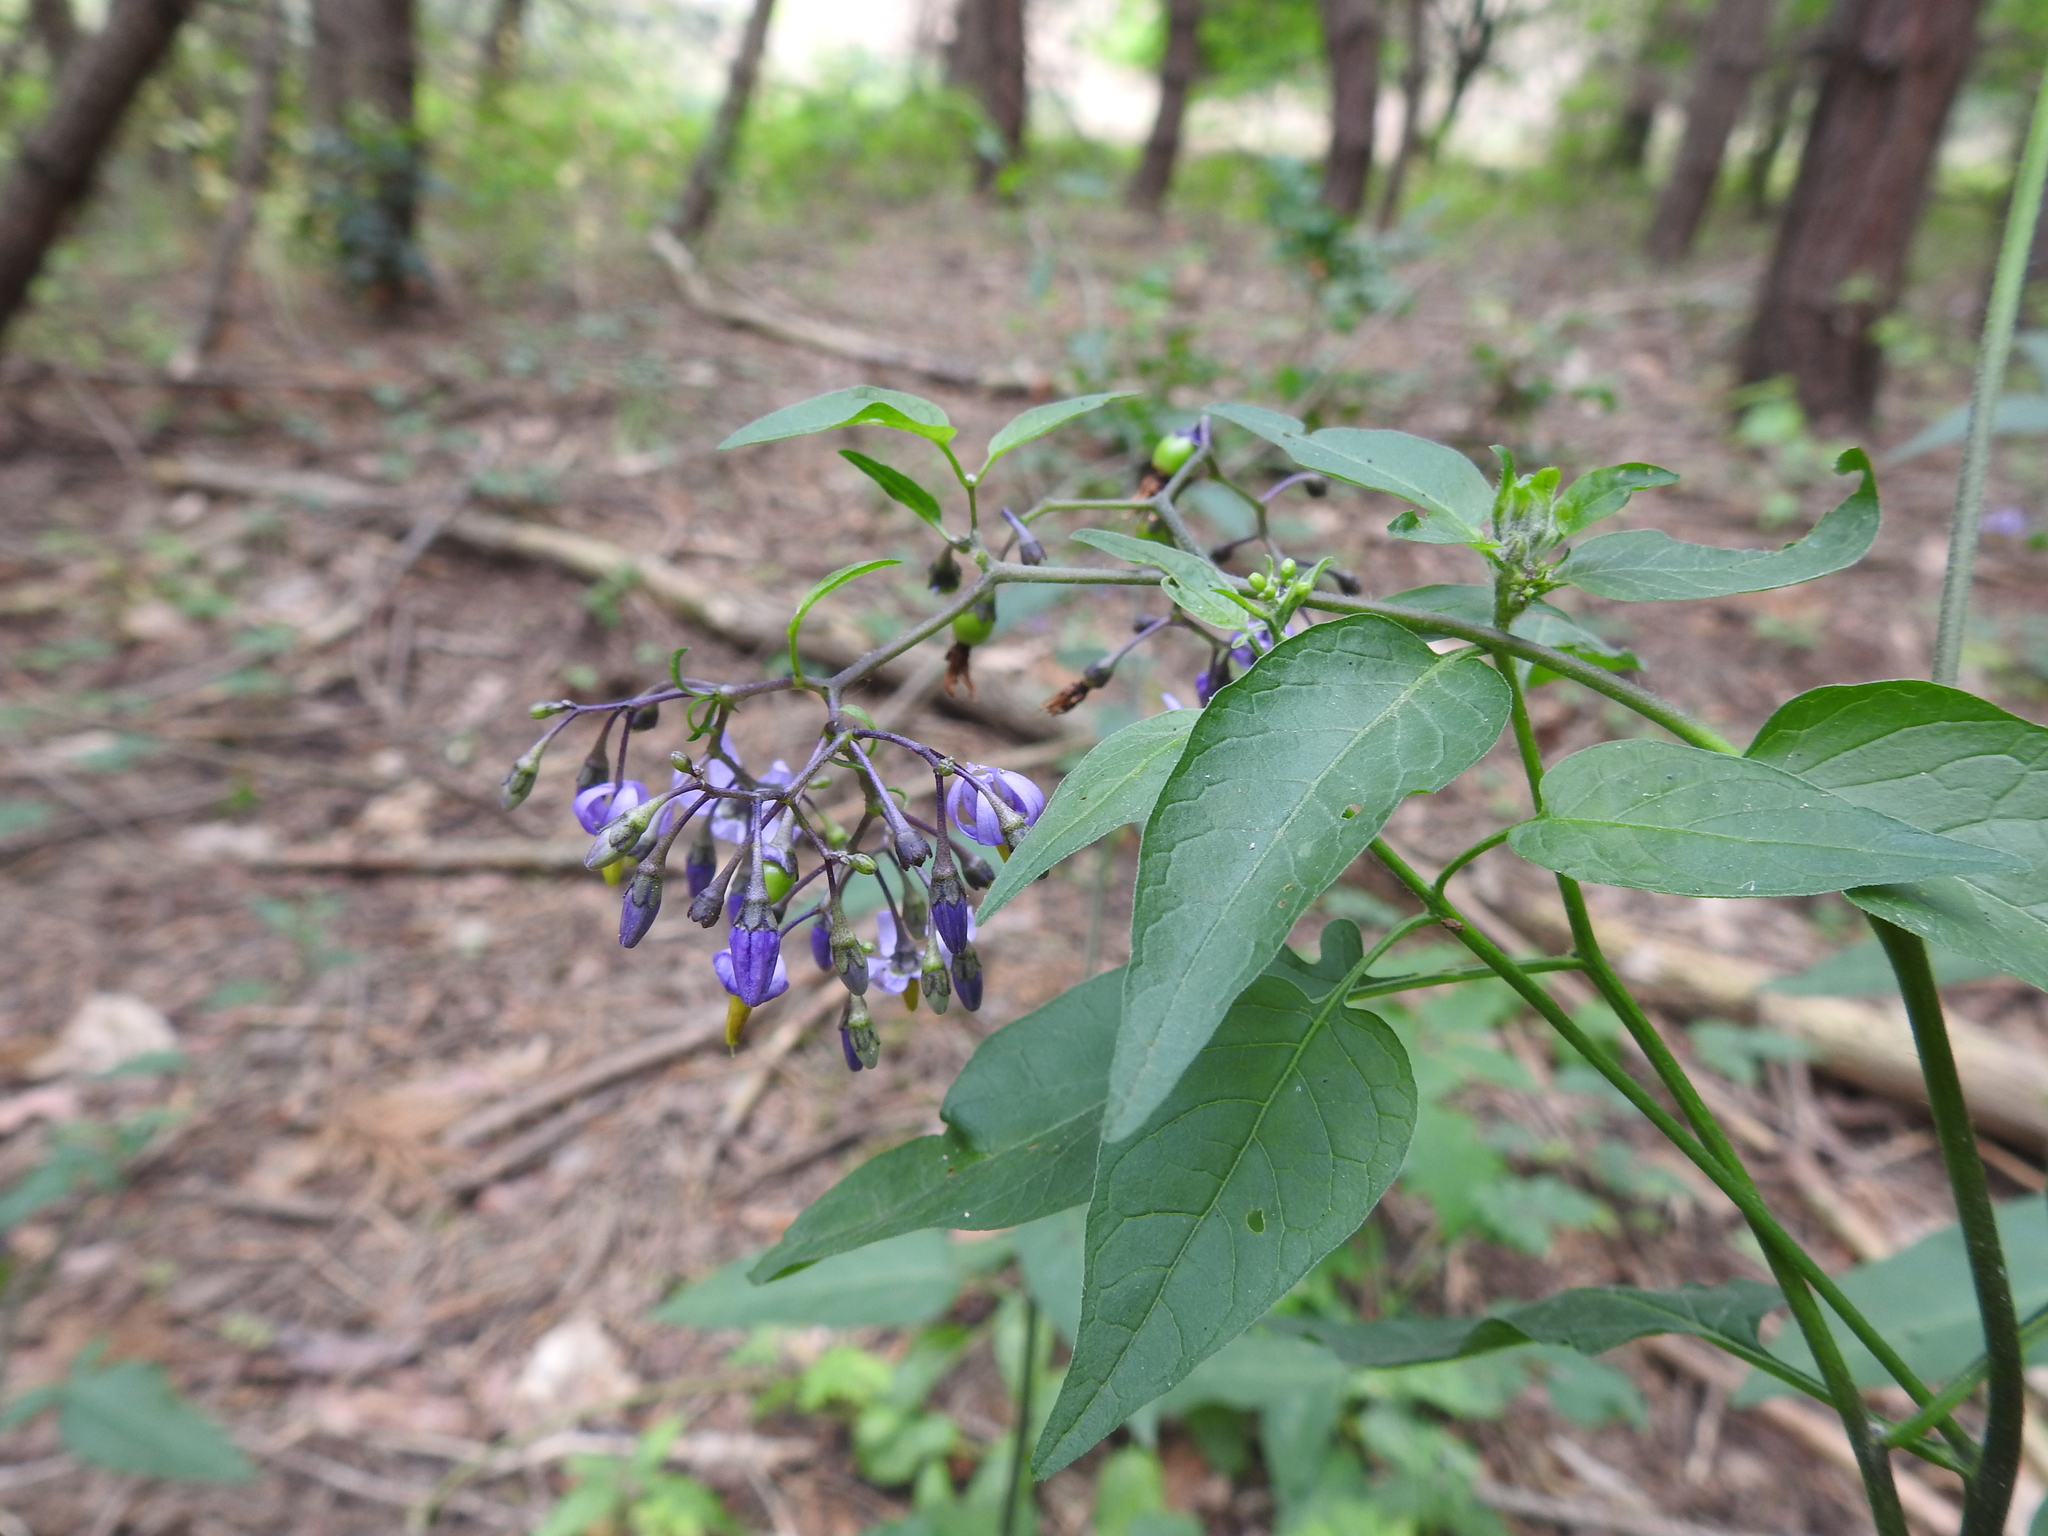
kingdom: Plantae
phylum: Tracheophyta
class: Magnoliopsida
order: Solanales
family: Solanaceae
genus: Solanum
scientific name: Solanum dulcamara
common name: Climbing nightshade
